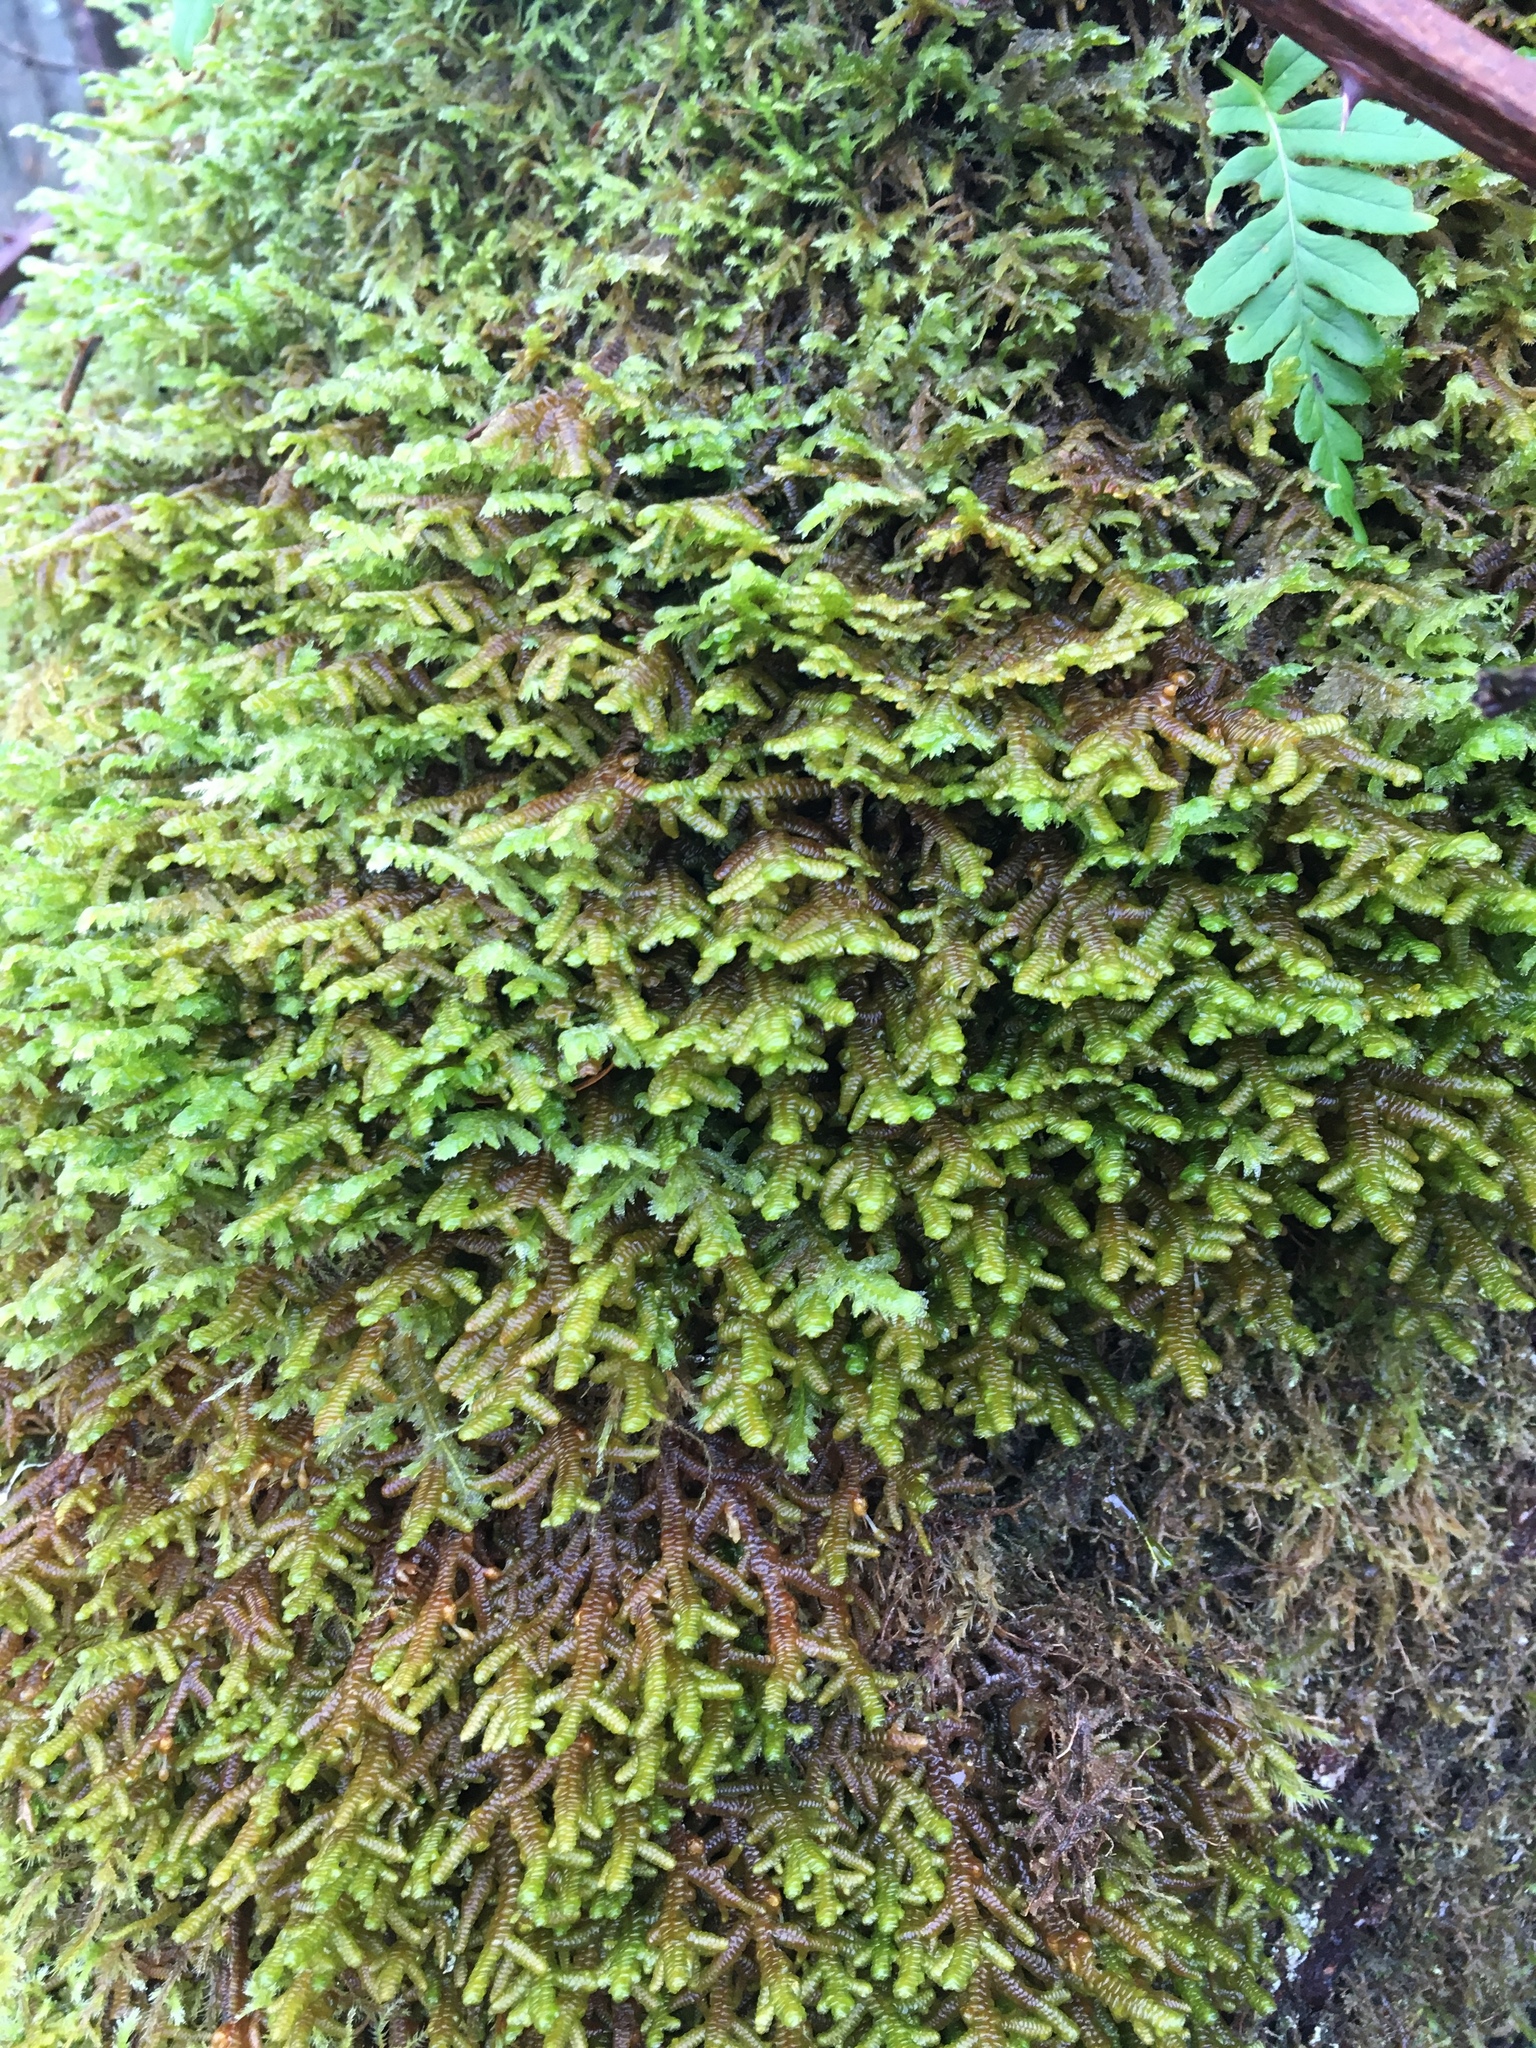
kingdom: Plantae
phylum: Marchantiophyta
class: Jungermanniopsida
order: Porellales
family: Porellaceae
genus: Porella
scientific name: Porella navicularis
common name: Tree ruffle liverwort
